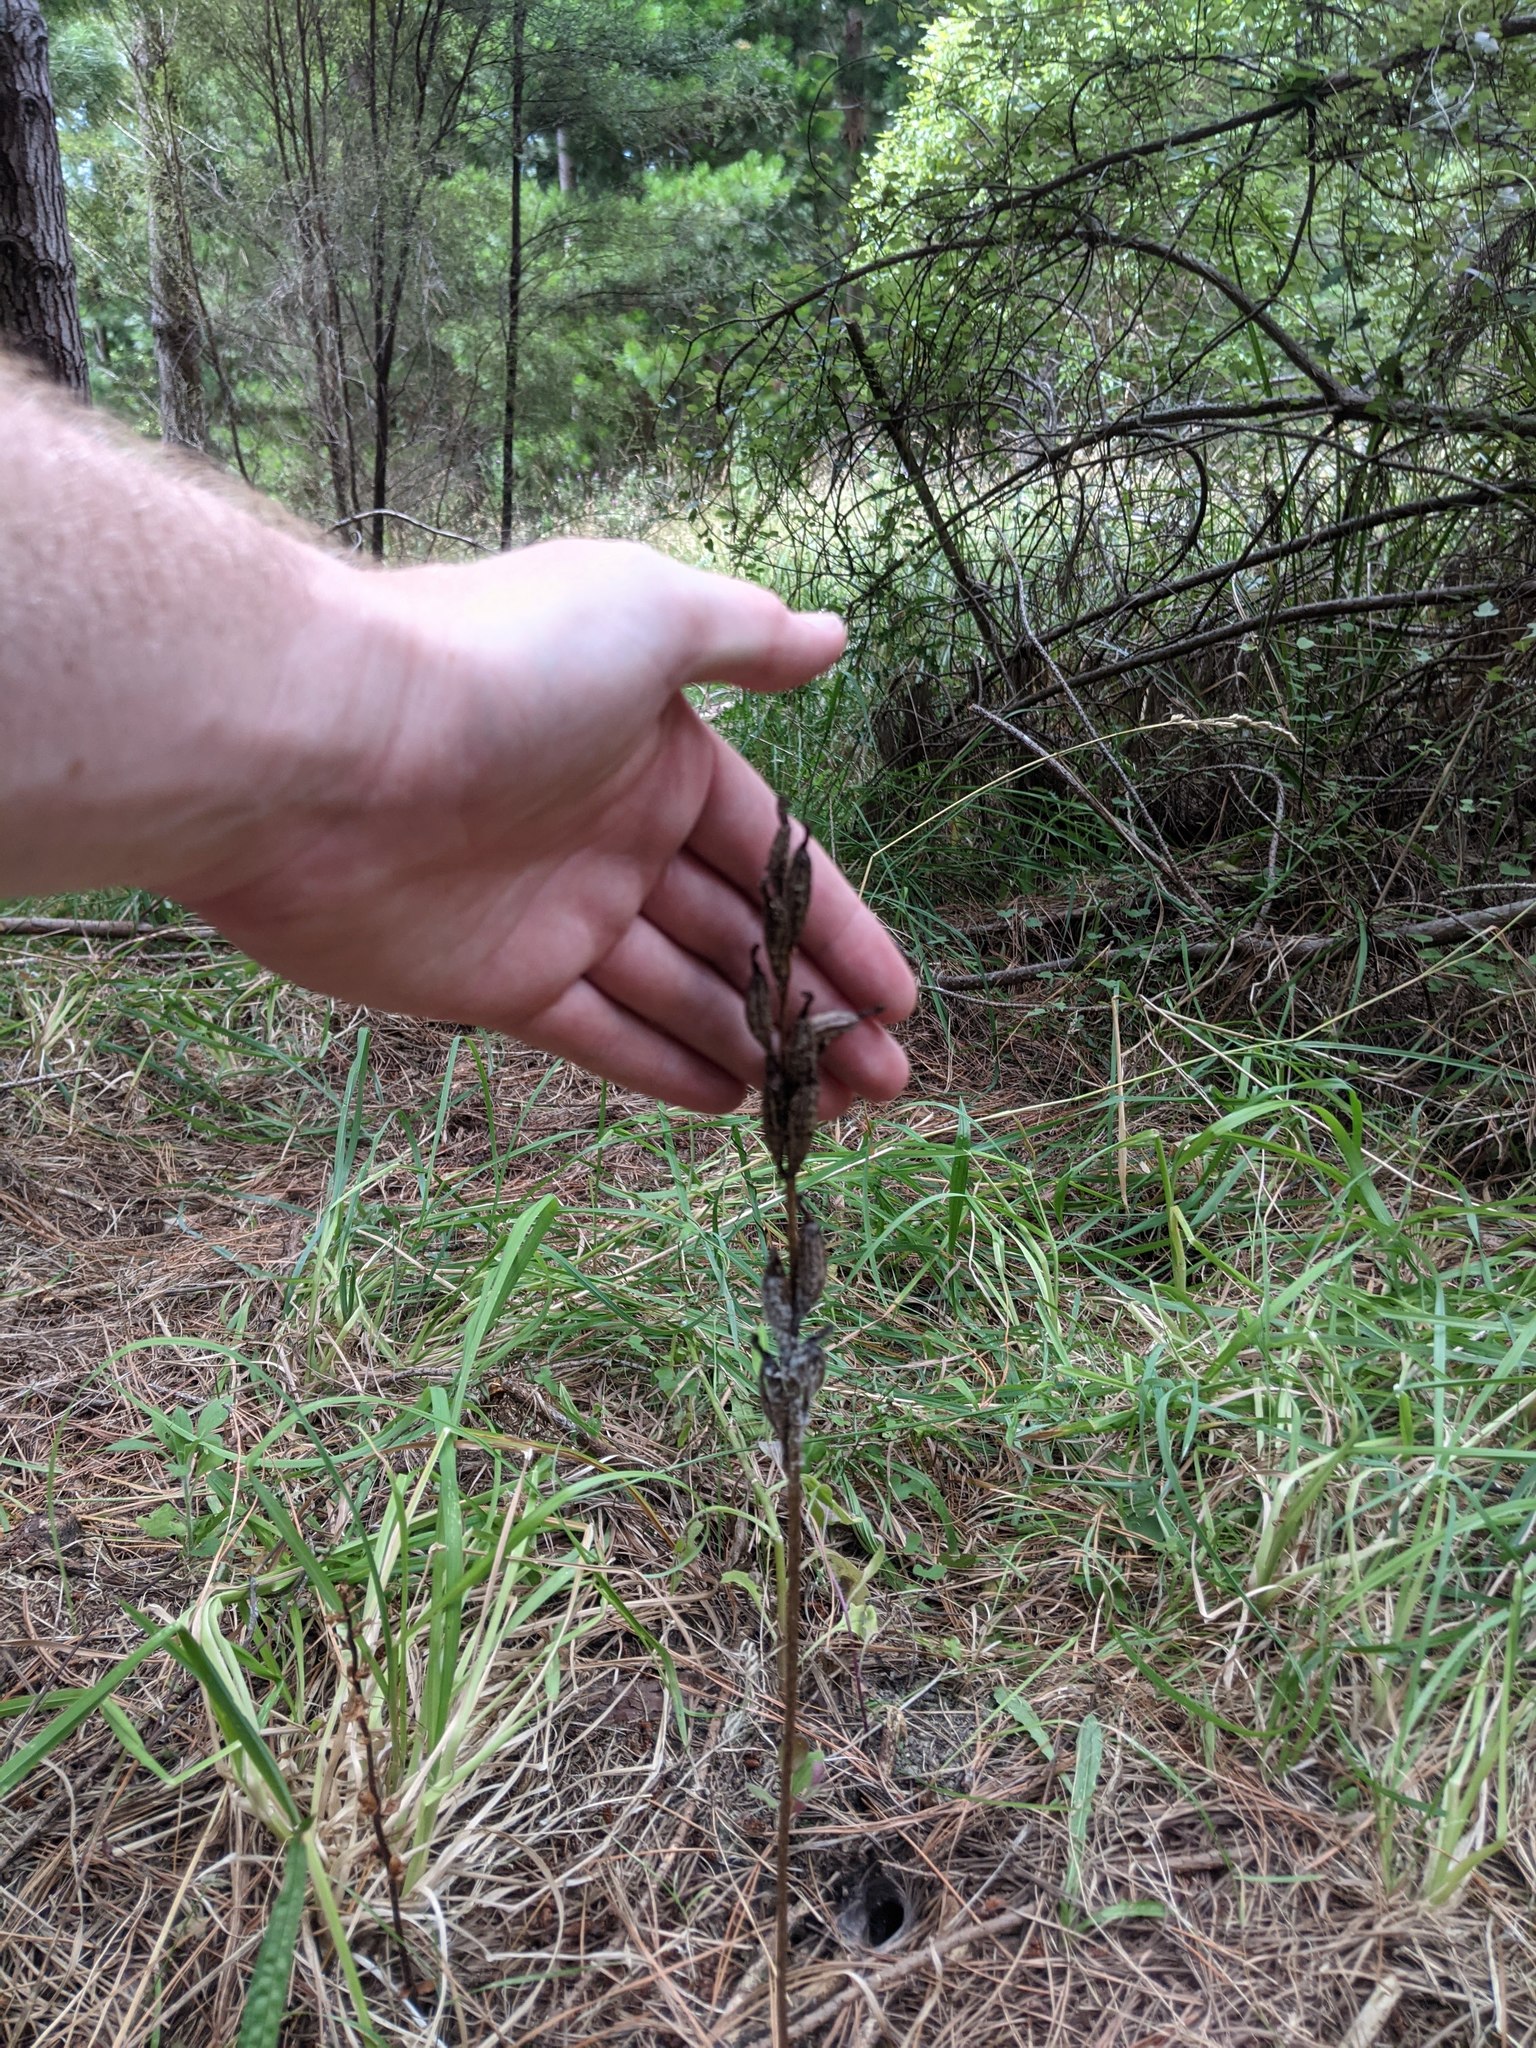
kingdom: Plantae
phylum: Tracheophyta
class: Liliopsida
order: Asparagales
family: Orchidaceae
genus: Gastrodia
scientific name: Gastrodia cooperae
